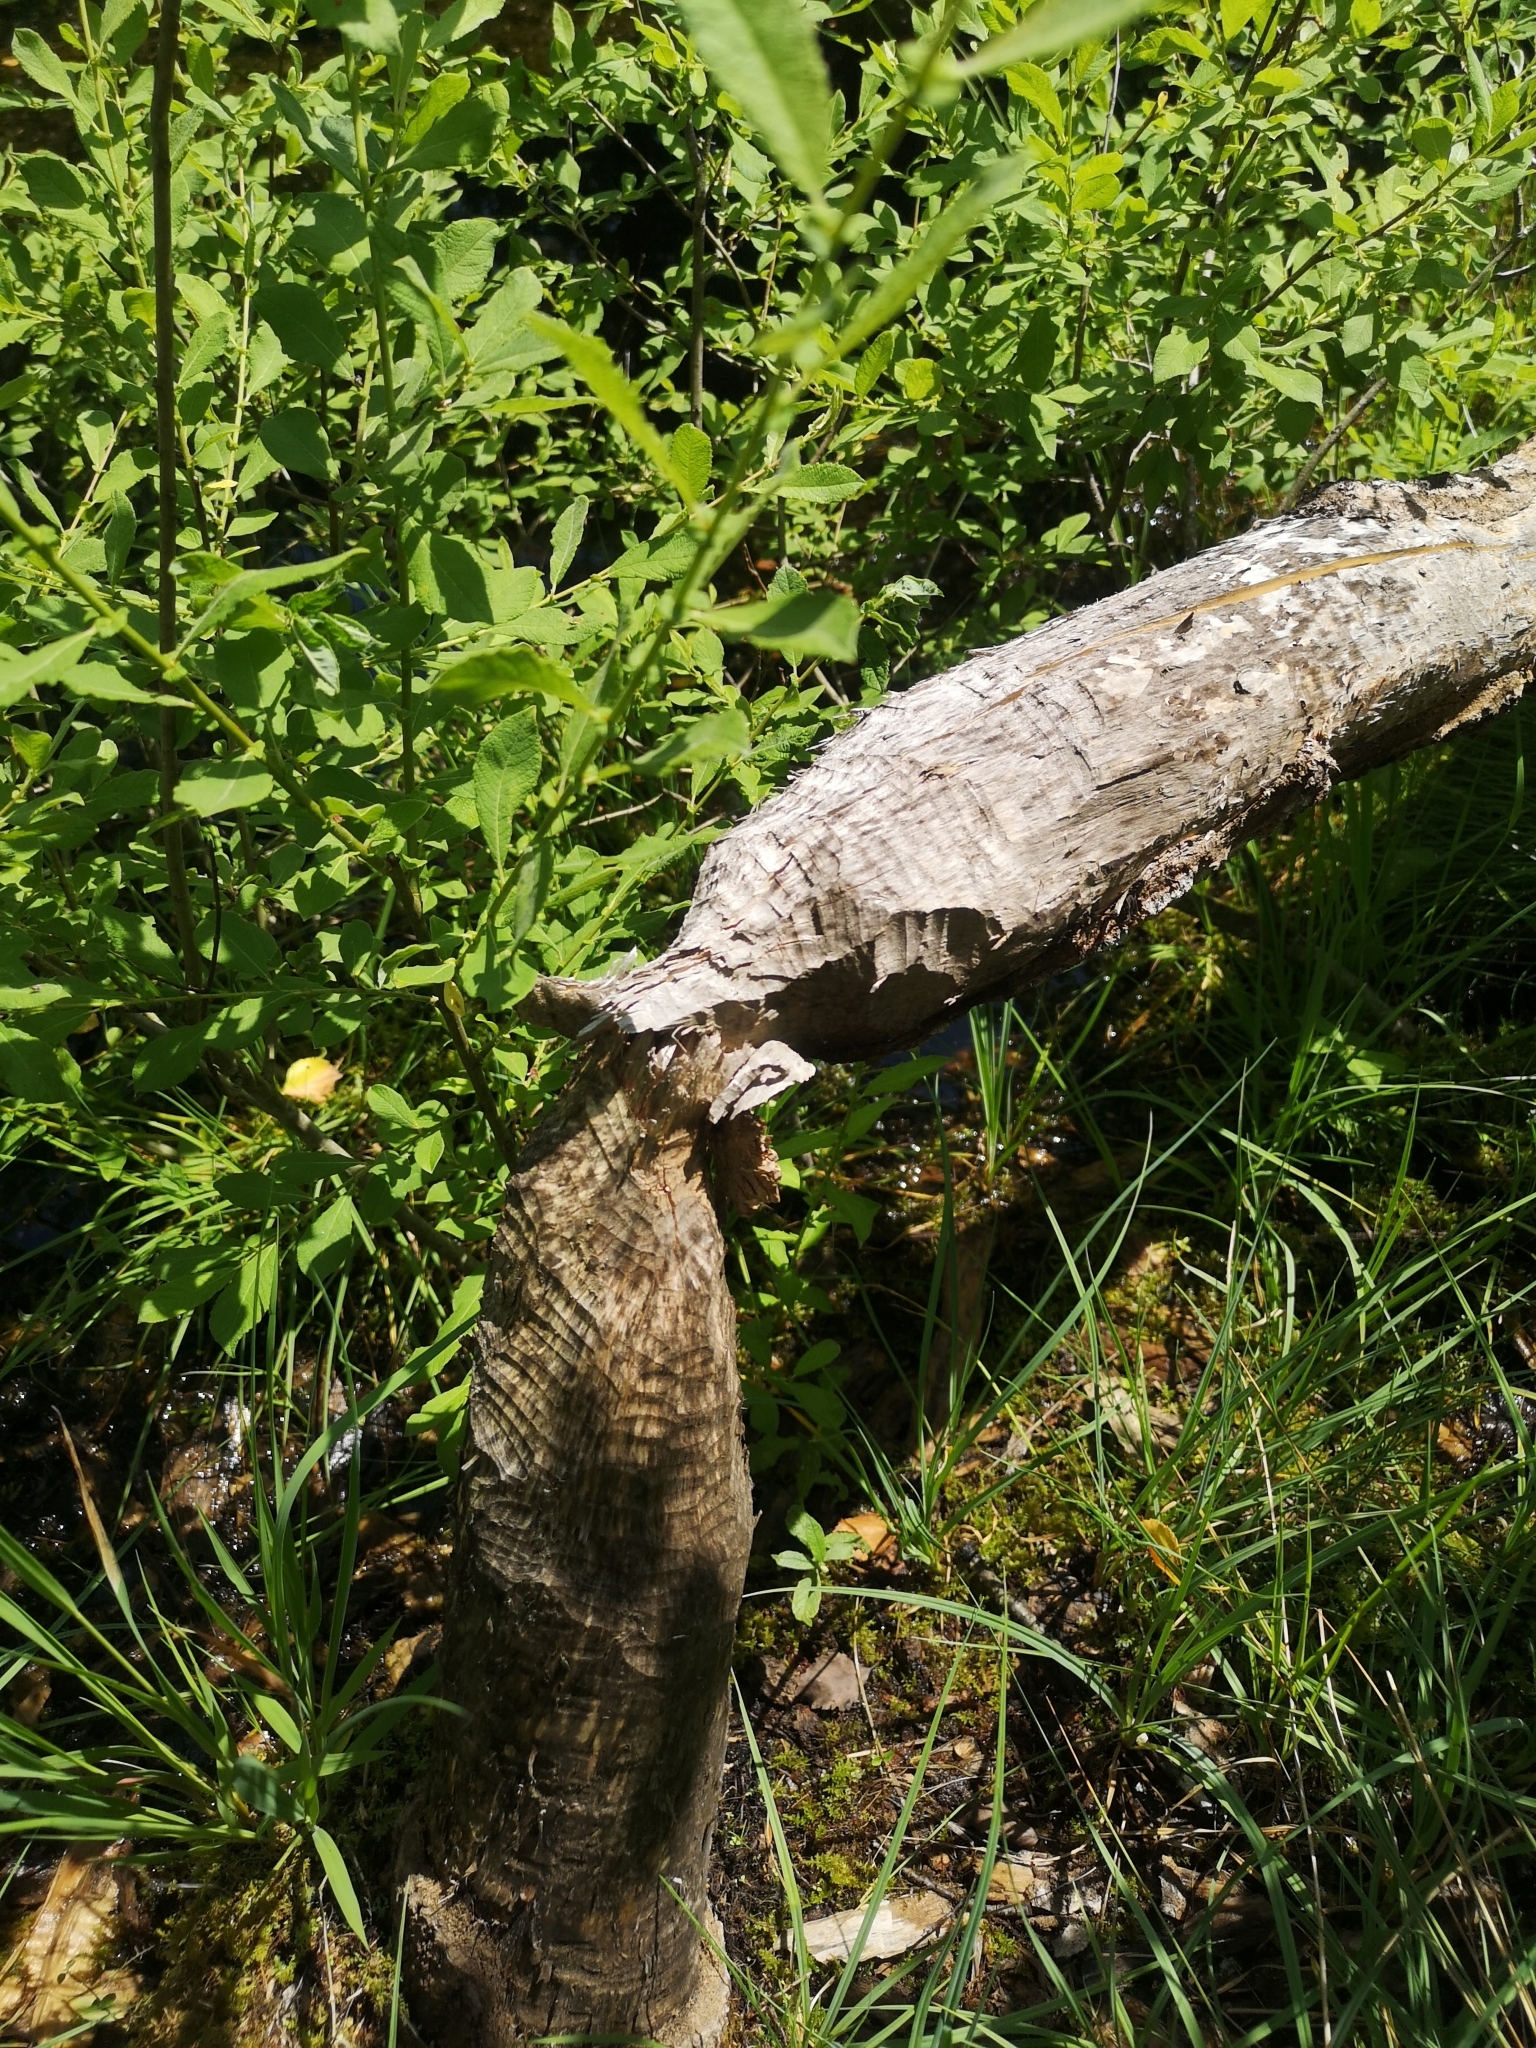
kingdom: Animalia
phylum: Chordata
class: Mammalia
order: Rodentia
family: Castoridae
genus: Castor
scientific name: Castor fiber
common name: Eurasian beaver
